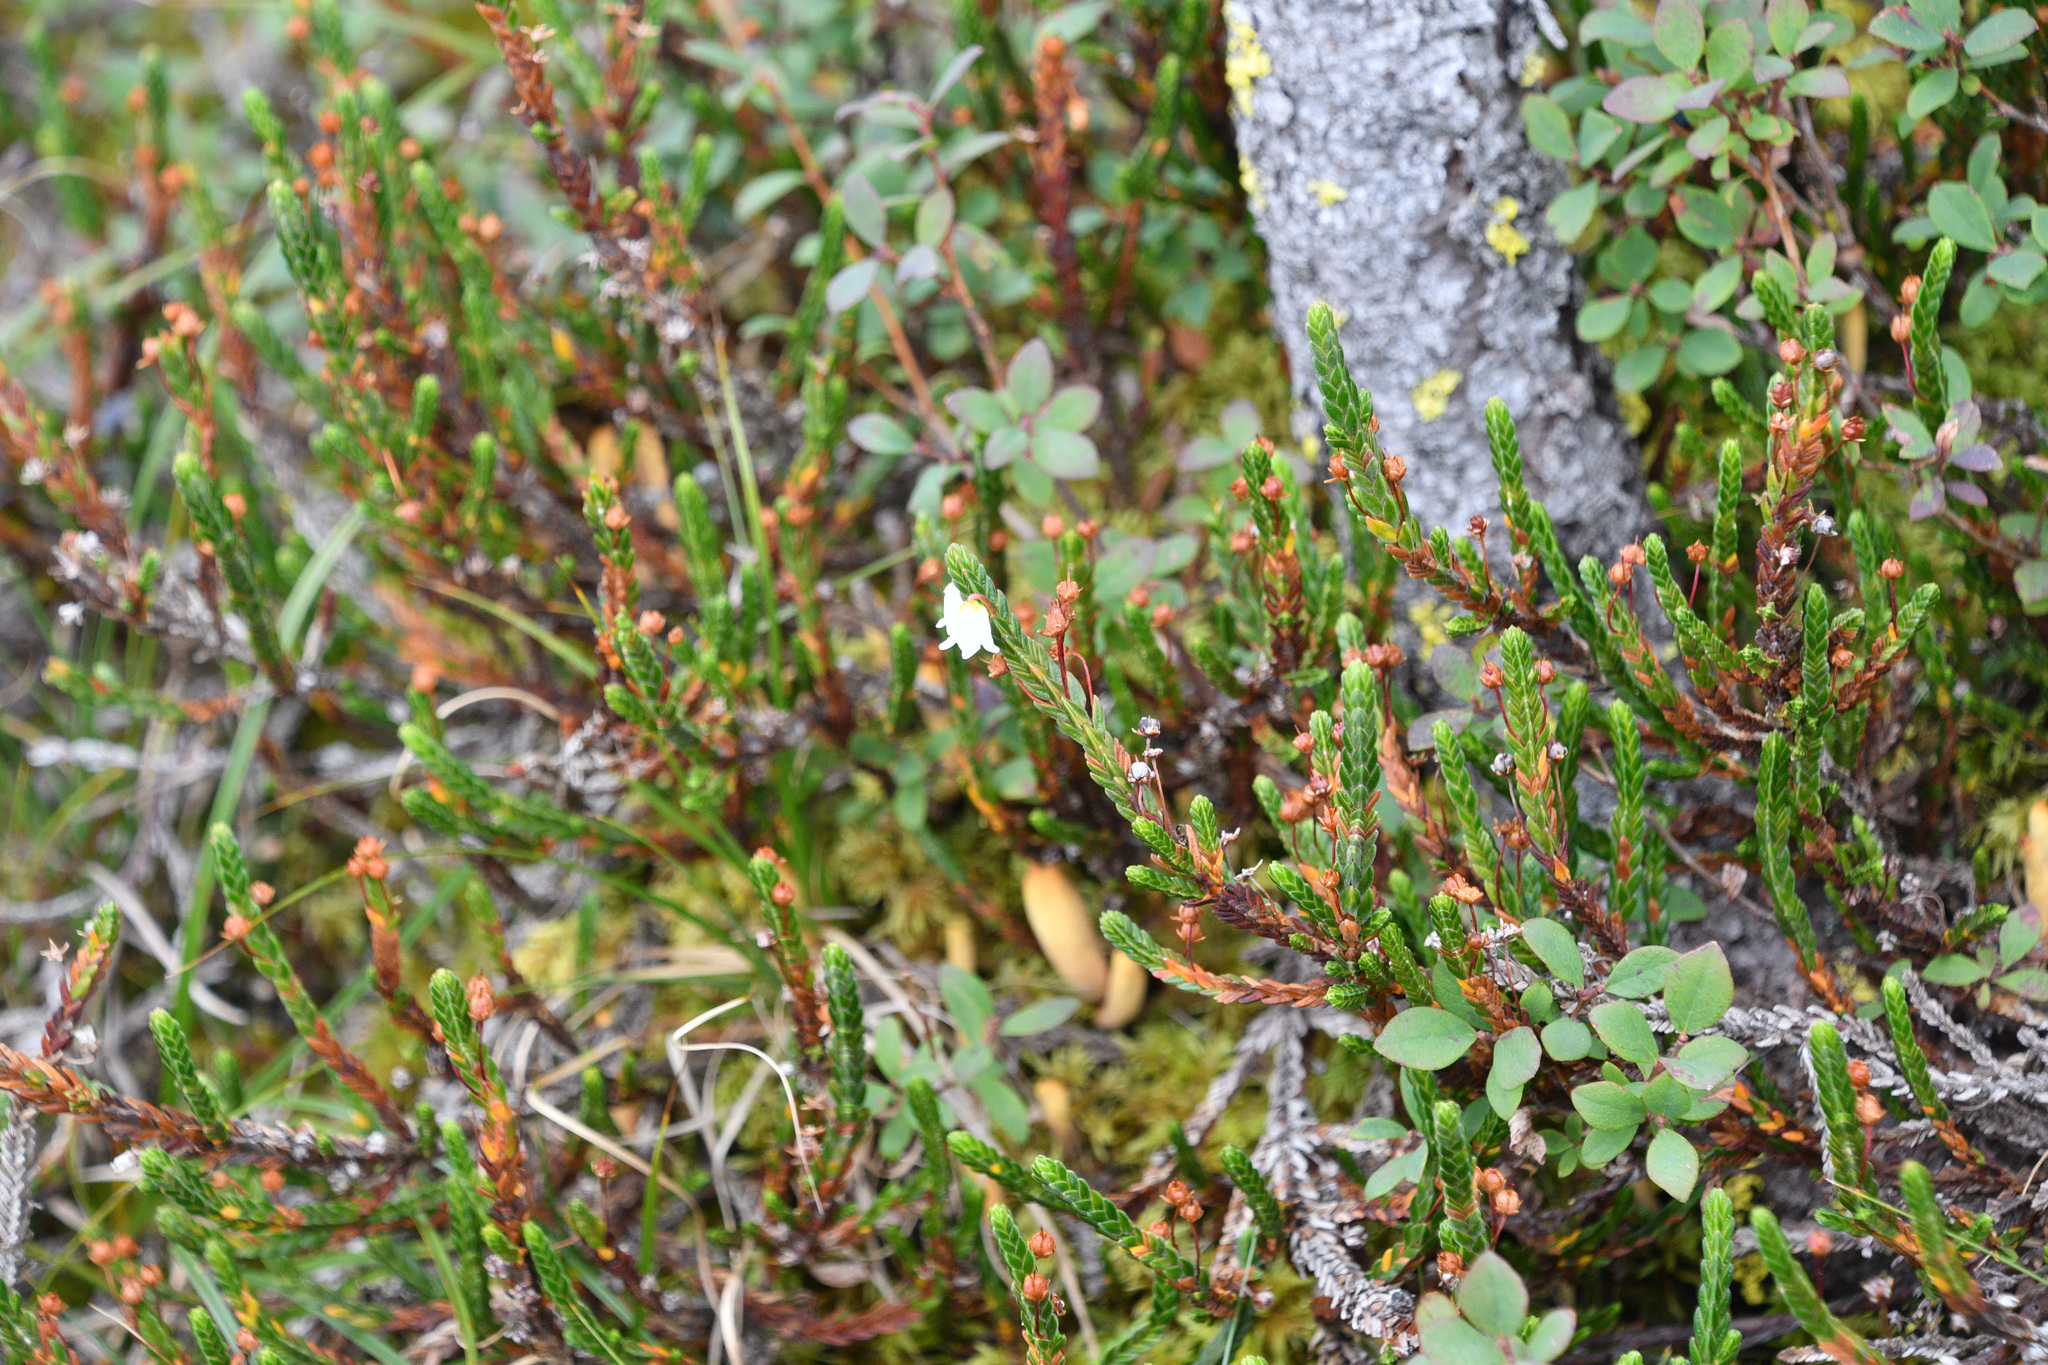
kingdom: Plantae
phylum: Tracheophyta
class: Magnoliopsida
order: Ericales
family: Ericaceae
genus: Cassiope
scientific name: Cassiope tetragona
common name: Arctic bell heather
